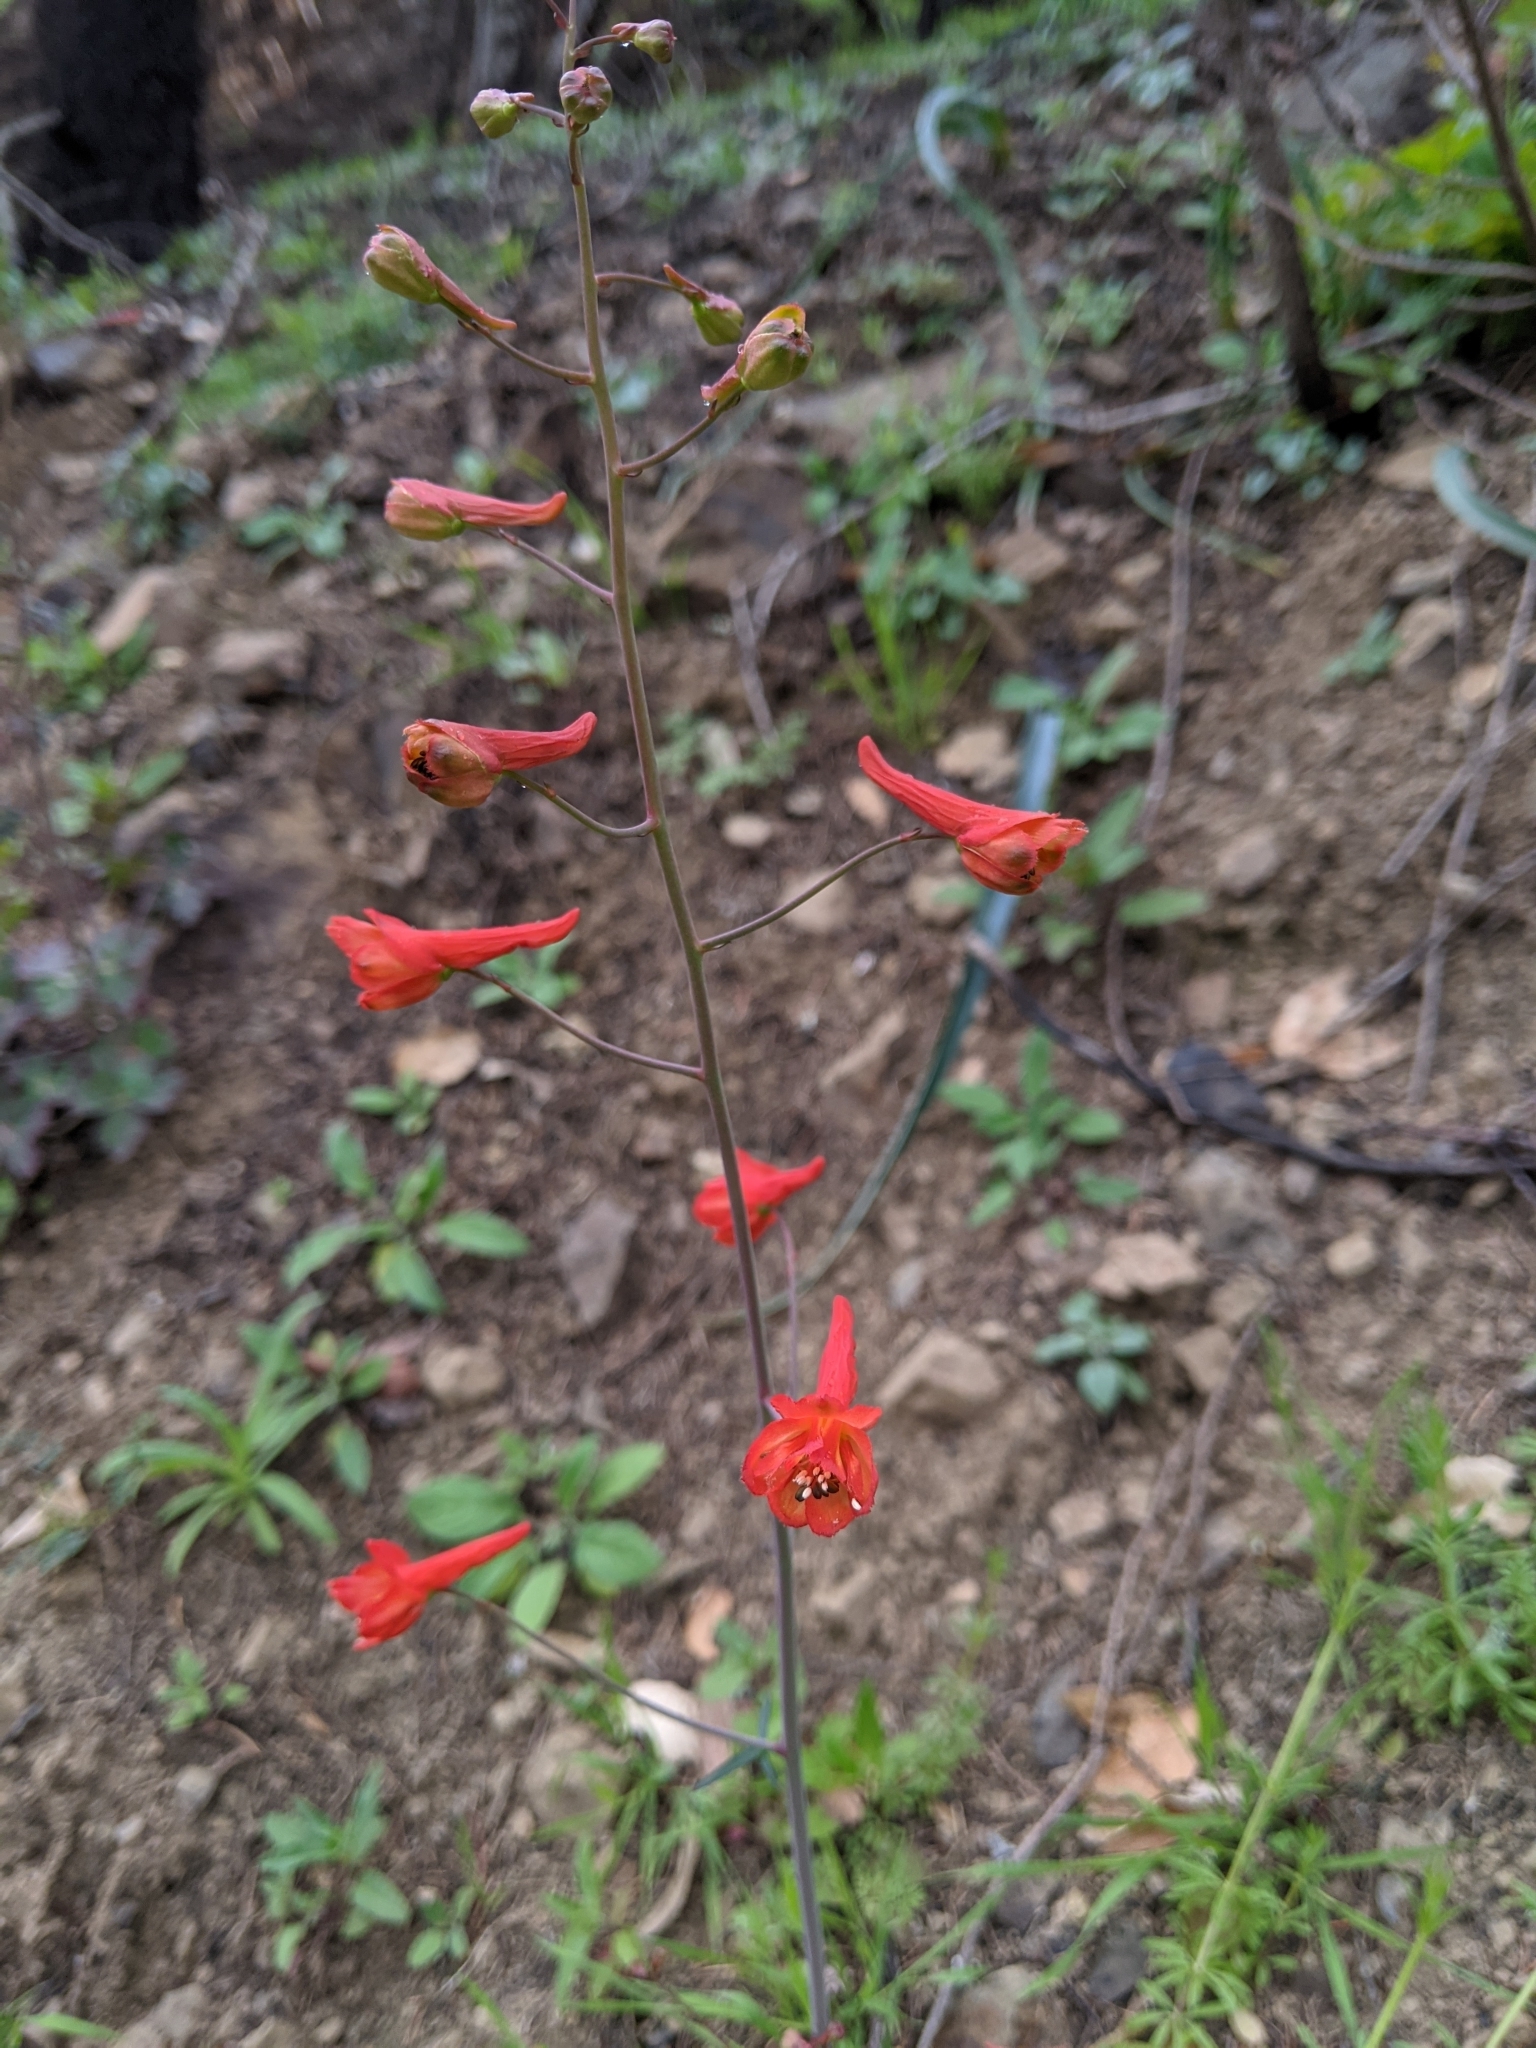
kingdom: Plantae
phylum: Tracheophyta
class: Magnoliopsida
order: Ranunculales
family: Ranunculaceae
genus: Delphinium
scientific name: Delphinium nudicaule
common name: Red larkspur
